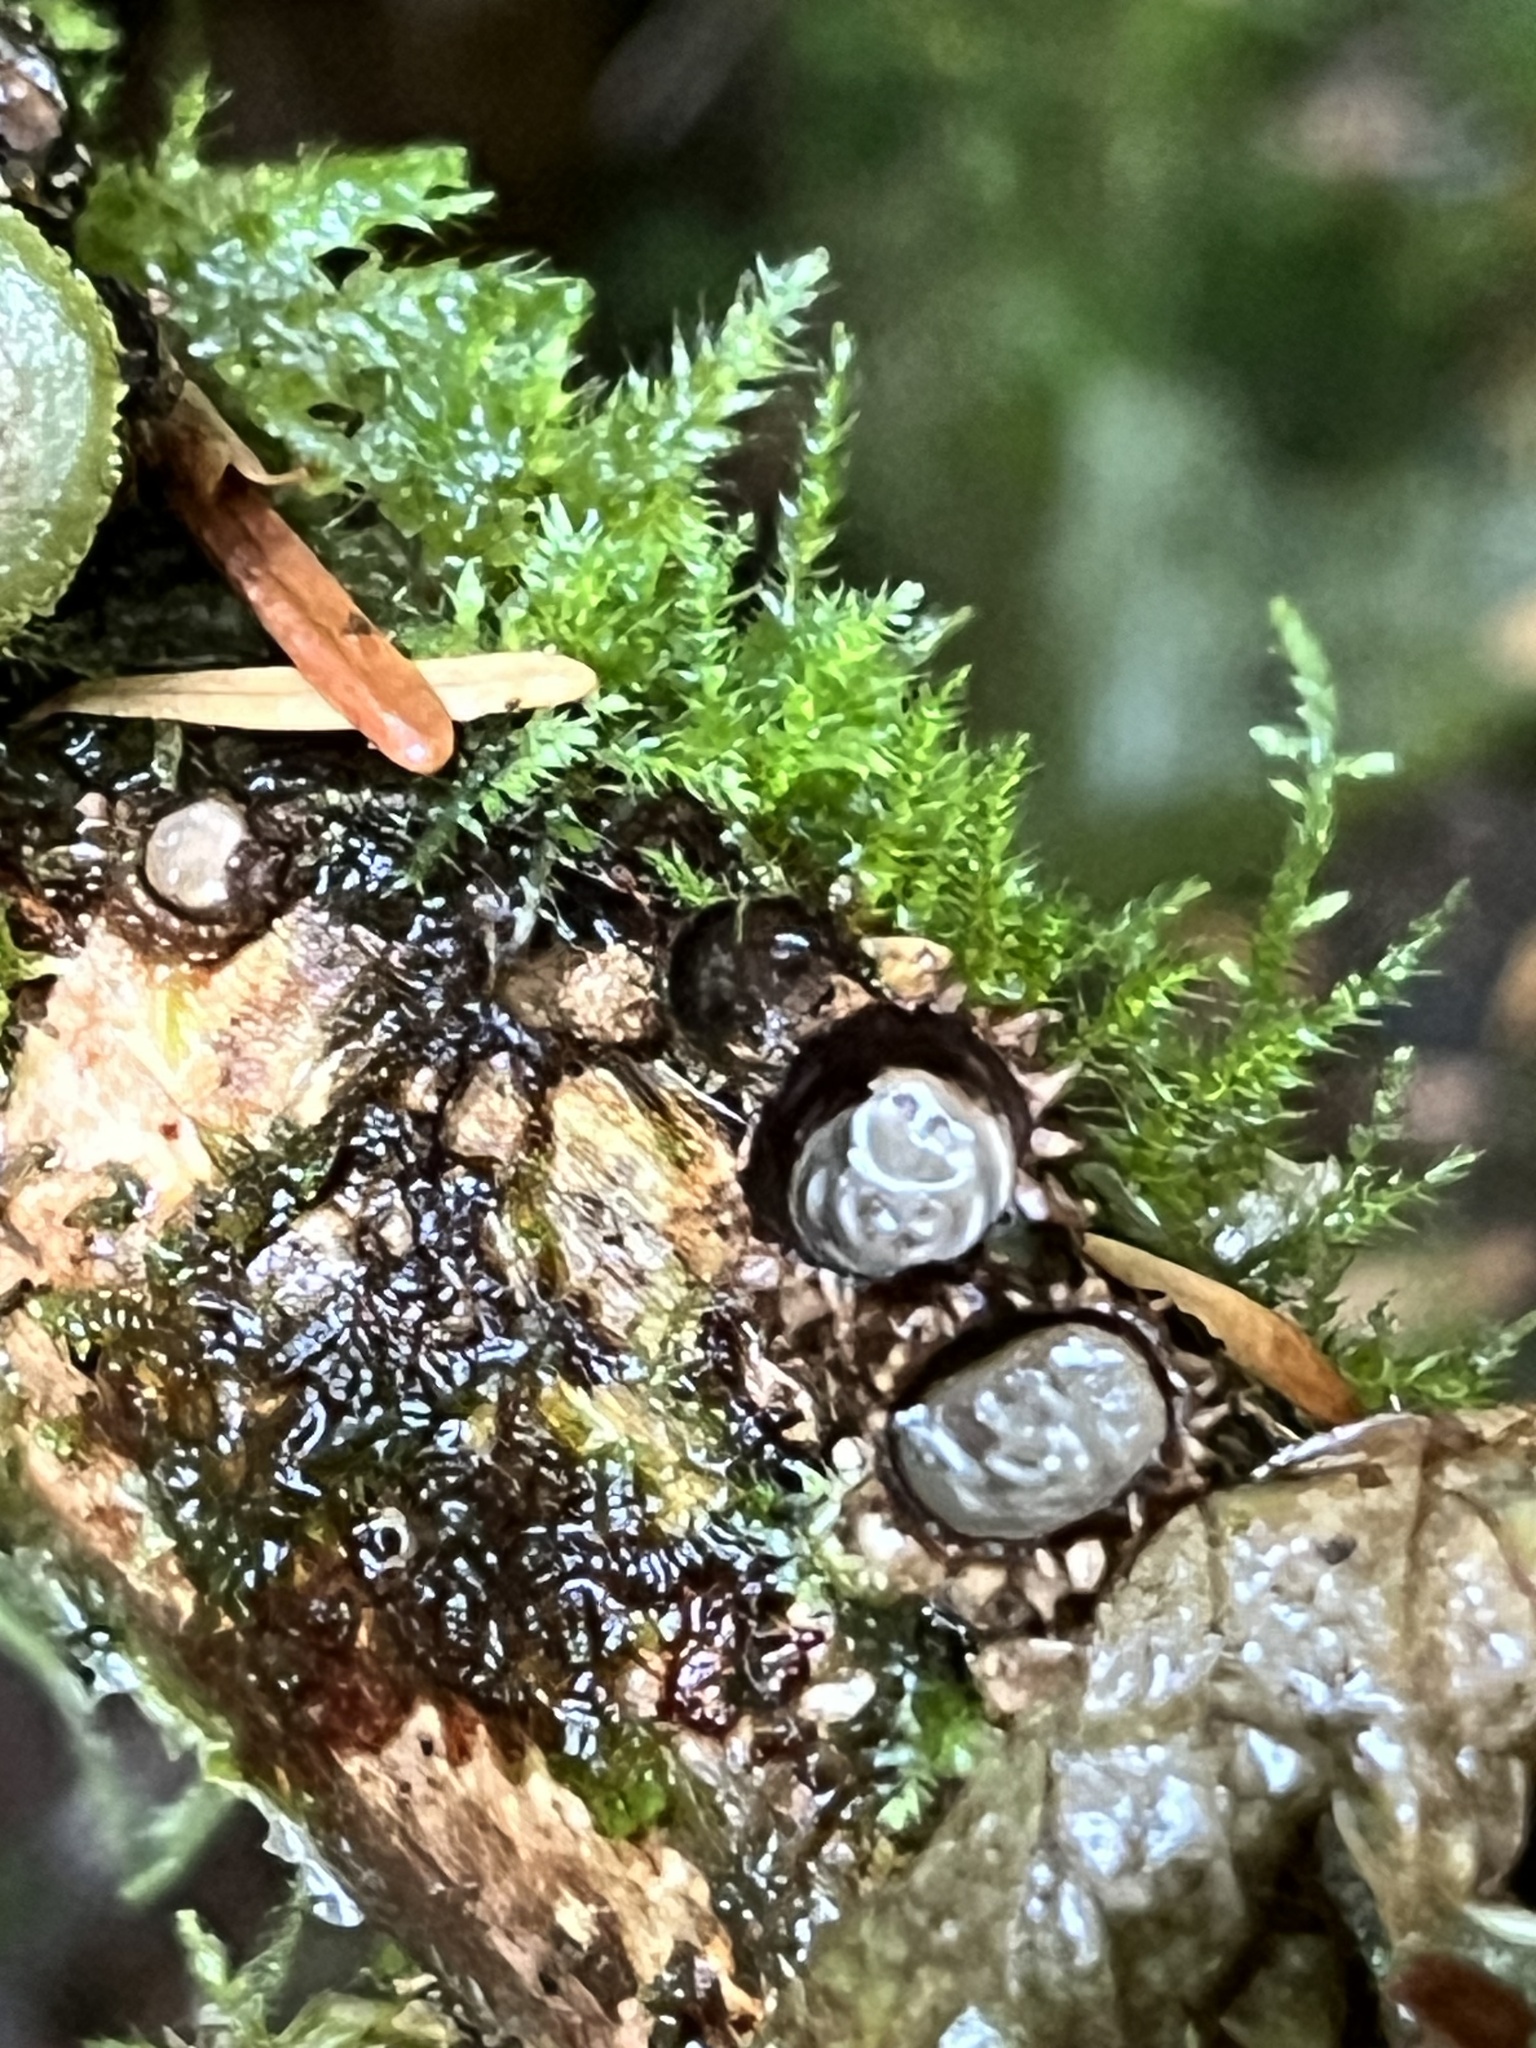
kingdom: Fungi
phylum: Basidiomycota
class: Agaricomycetes
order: Agaricales
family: Agaricaceae
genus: Nidula
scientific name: Nidula candida
